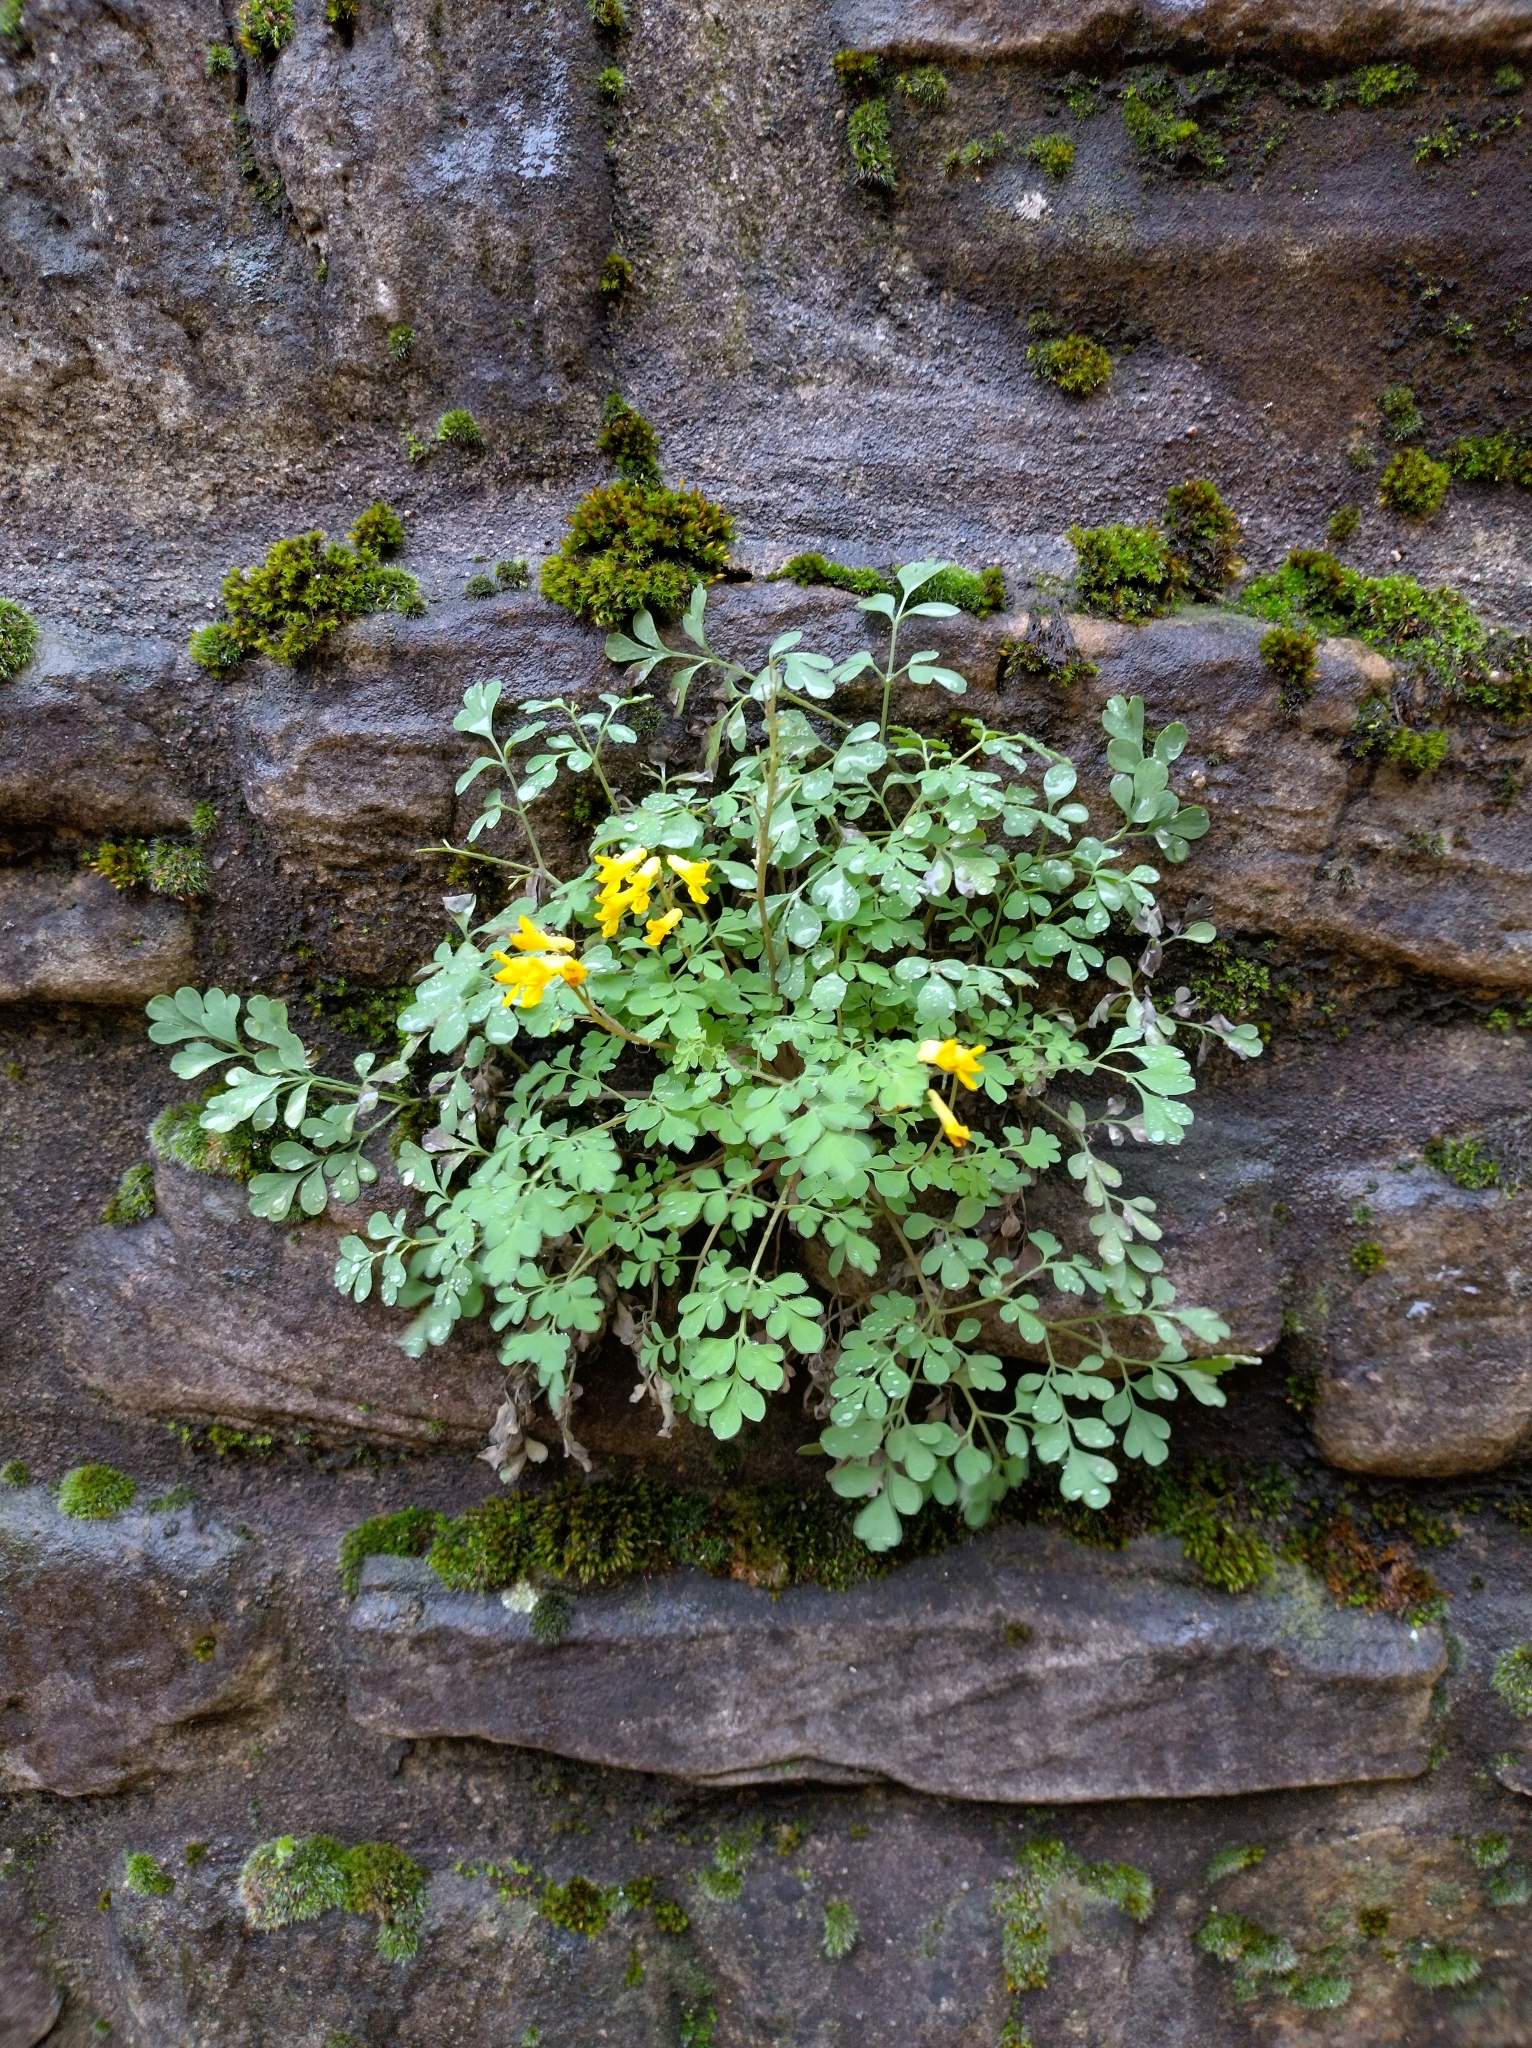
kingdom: Plantae
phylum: Tracheophyta
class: Magnoliopsida
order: Ranunculales
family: Papaveraceae
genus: Pseudofumaria
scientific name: Pseudofumaria lutea
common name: Yellow corydalis
